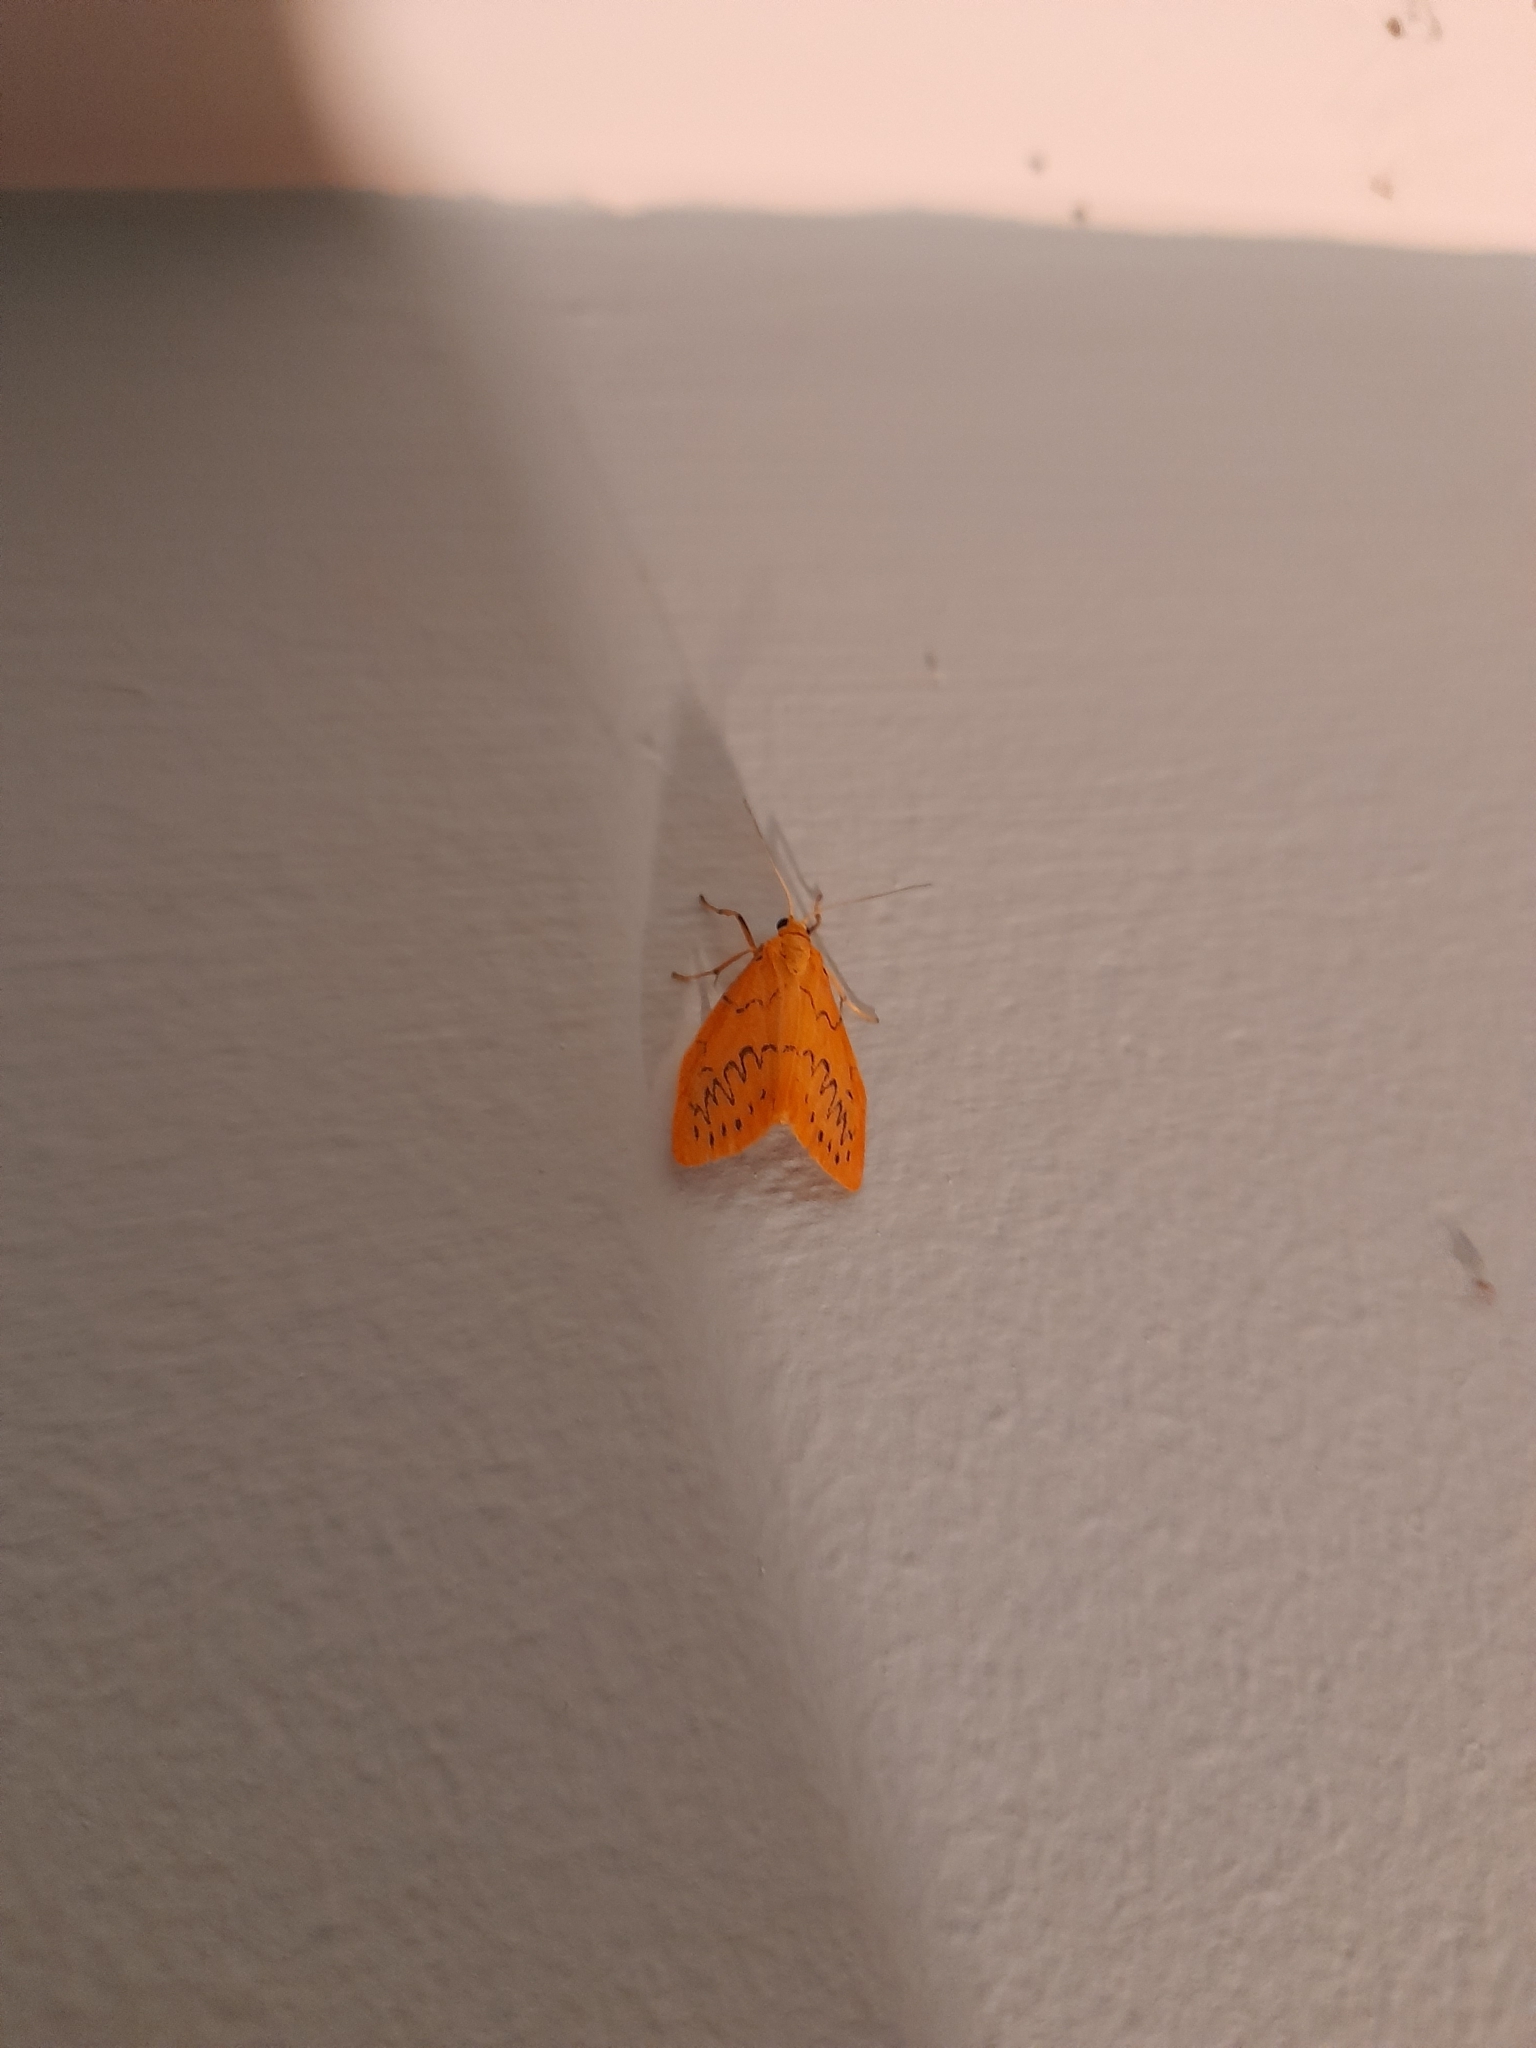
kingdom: Animalia
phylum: Arthropoda
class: Insecta
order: Lepidoptera
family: Erebidae
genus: Miltochrista
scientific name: Miltochrista miniata
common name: Rosy footman
